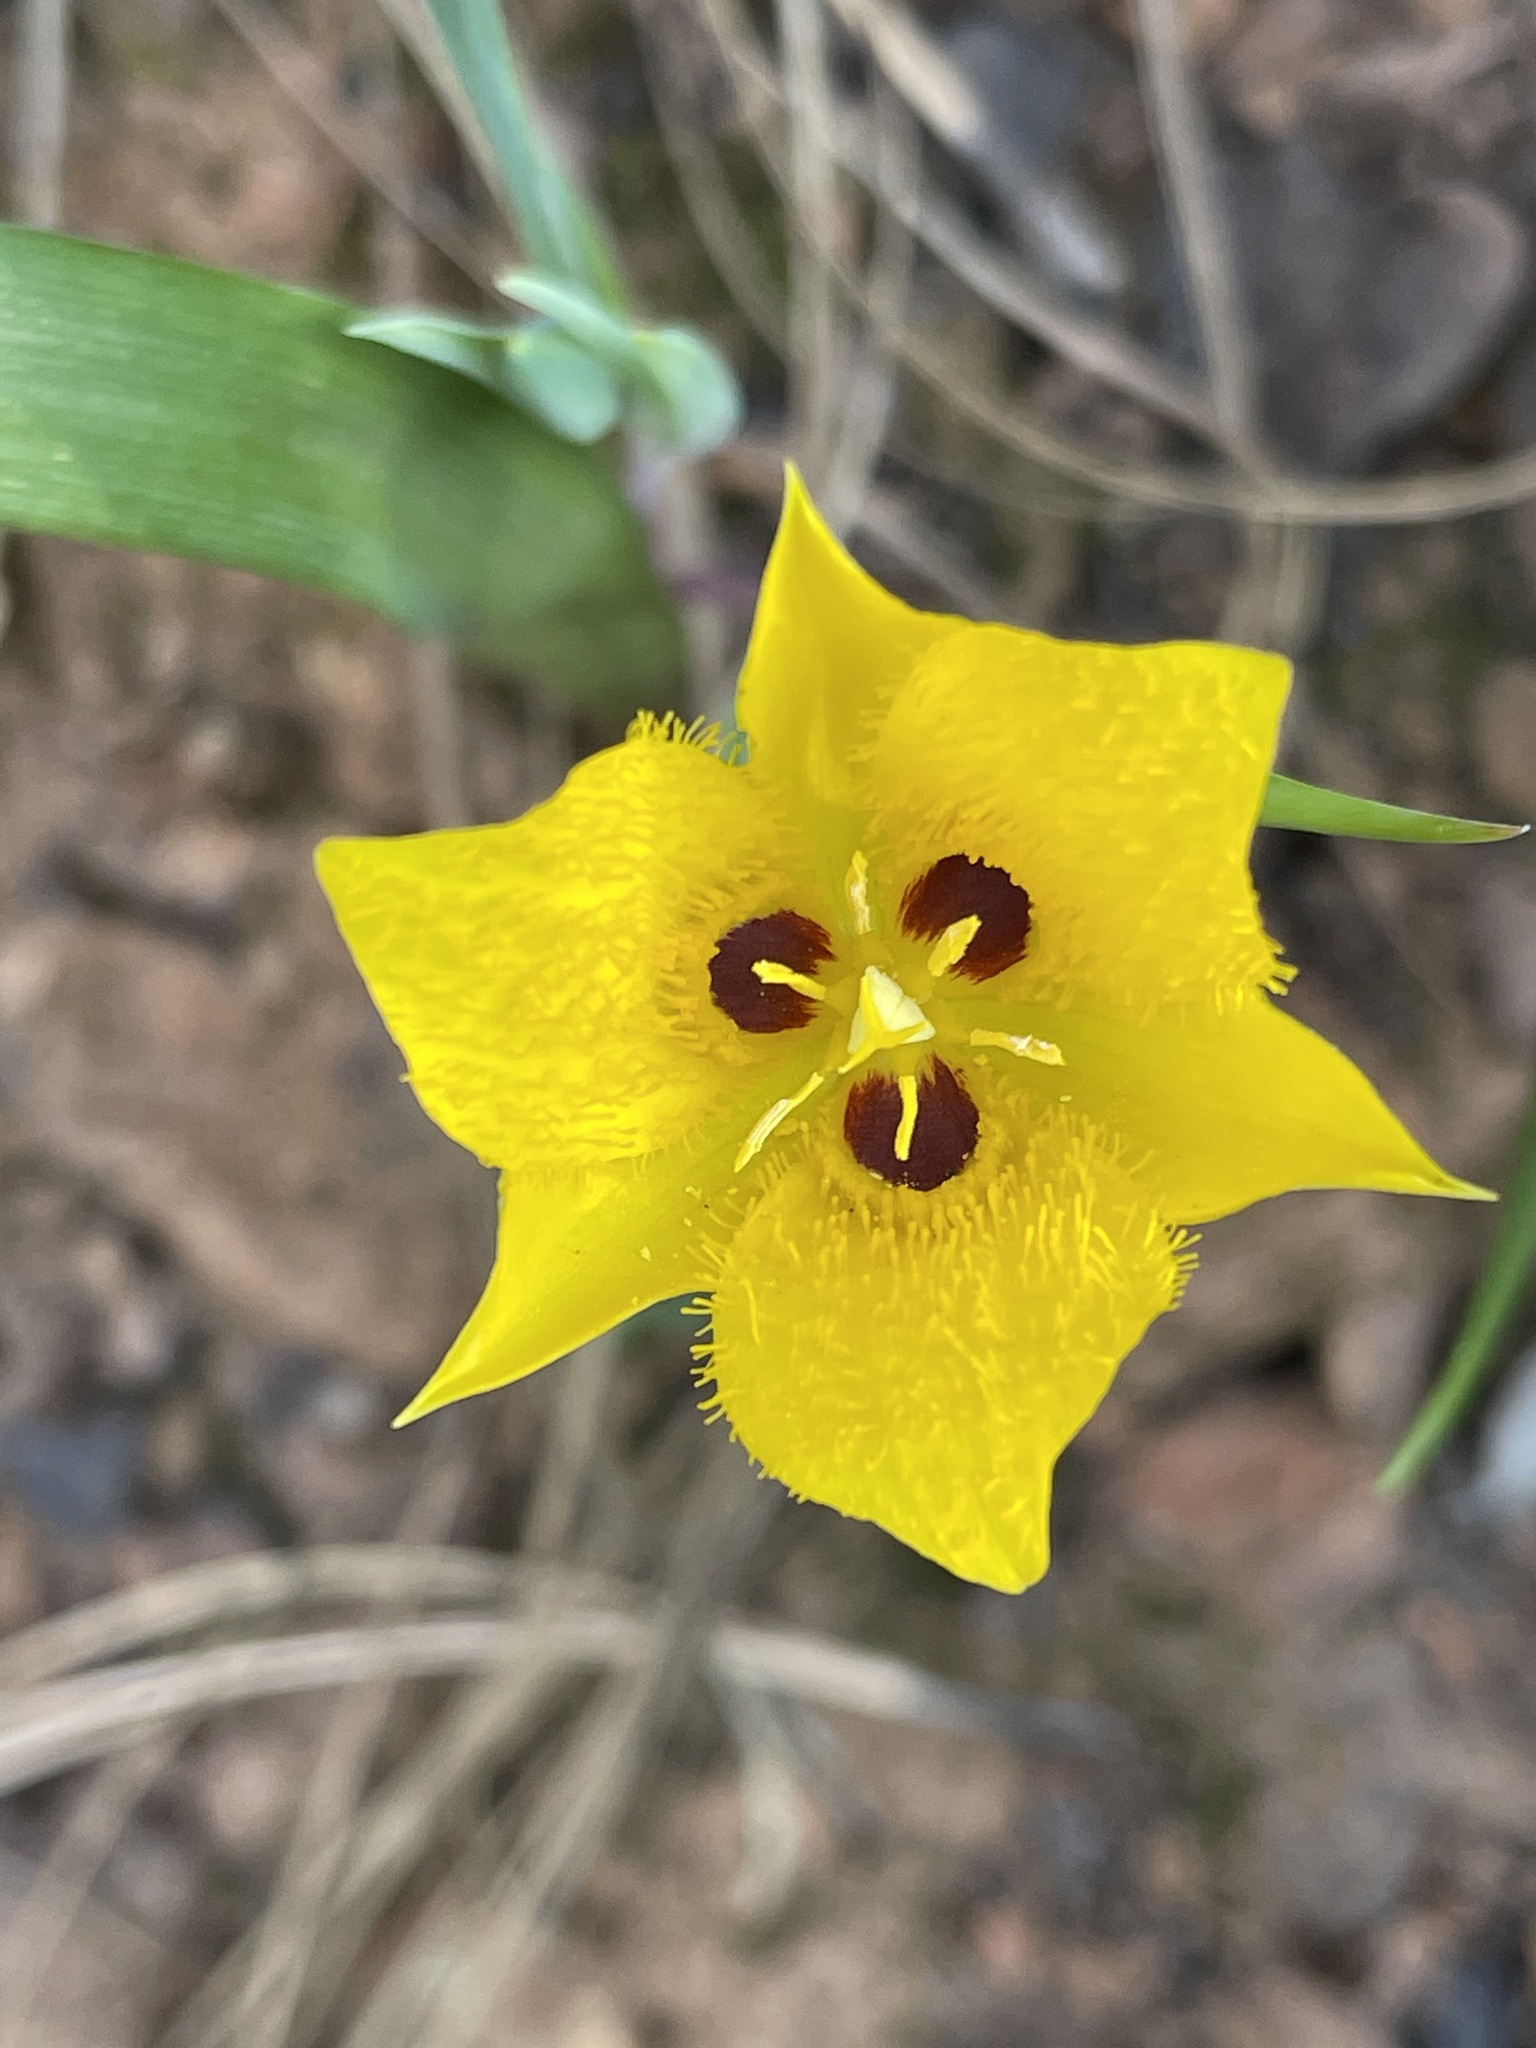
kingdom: Plantae
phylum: Tracheophyta
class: Liliopsida
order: Liliales
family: Liliaceae
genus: Calochortus
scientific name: Calochortus monophyllus
